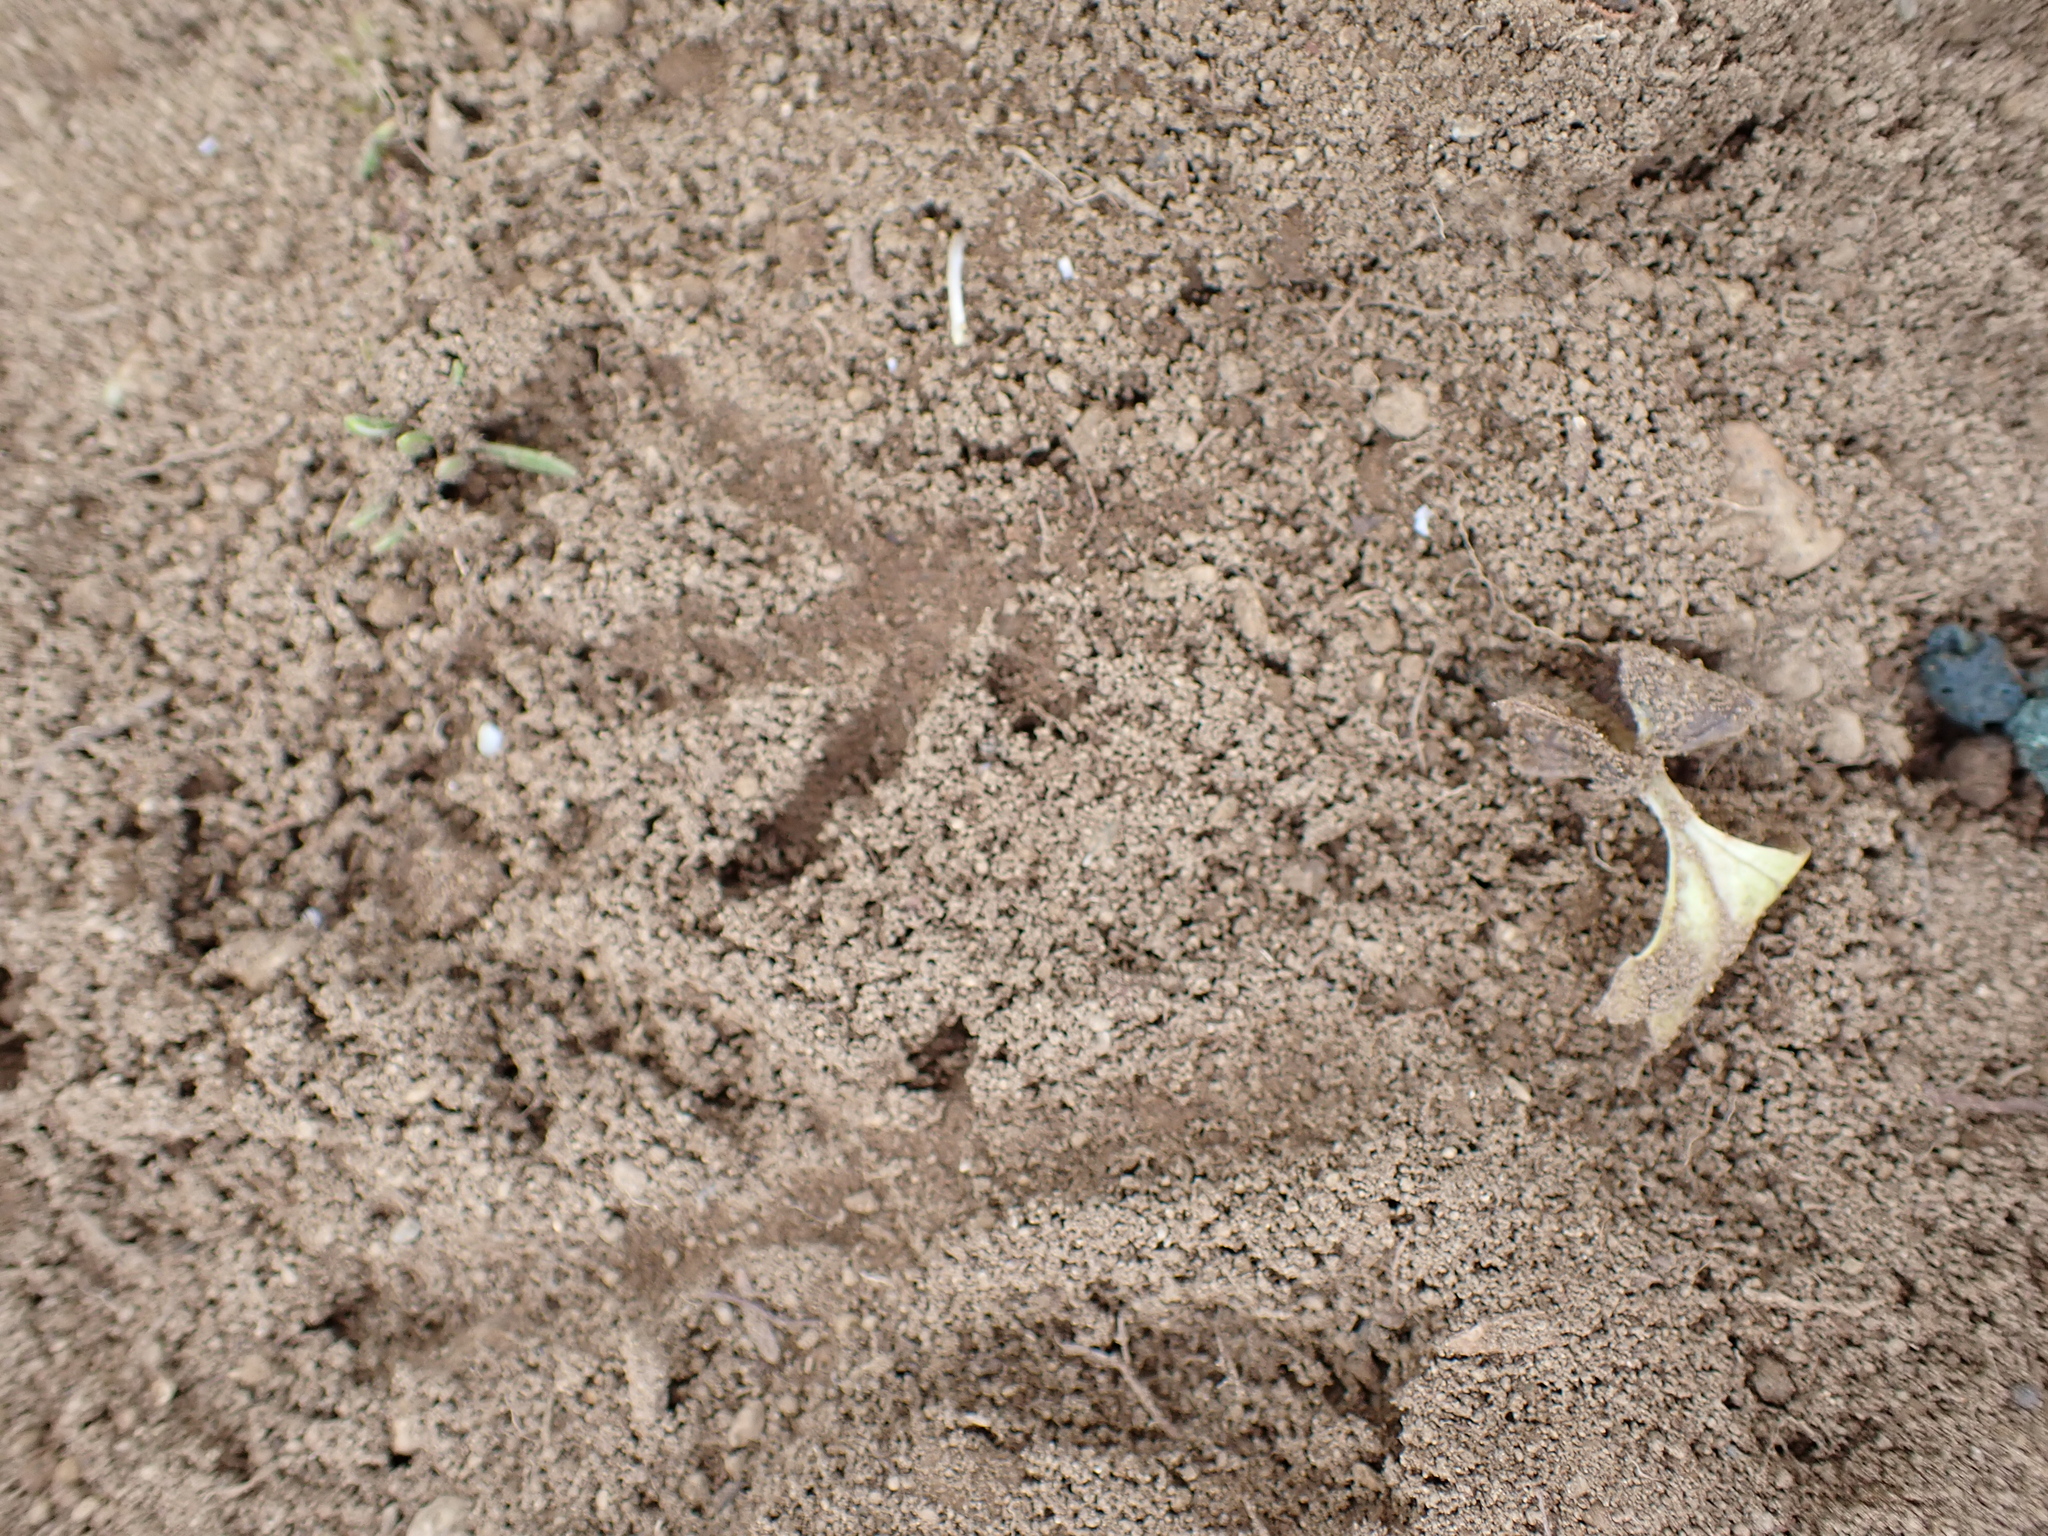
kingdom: Animalia
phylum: Chordata
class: Aves
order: Galliformes
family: Phasianidae
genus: Lagopus
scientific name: Lagopus
